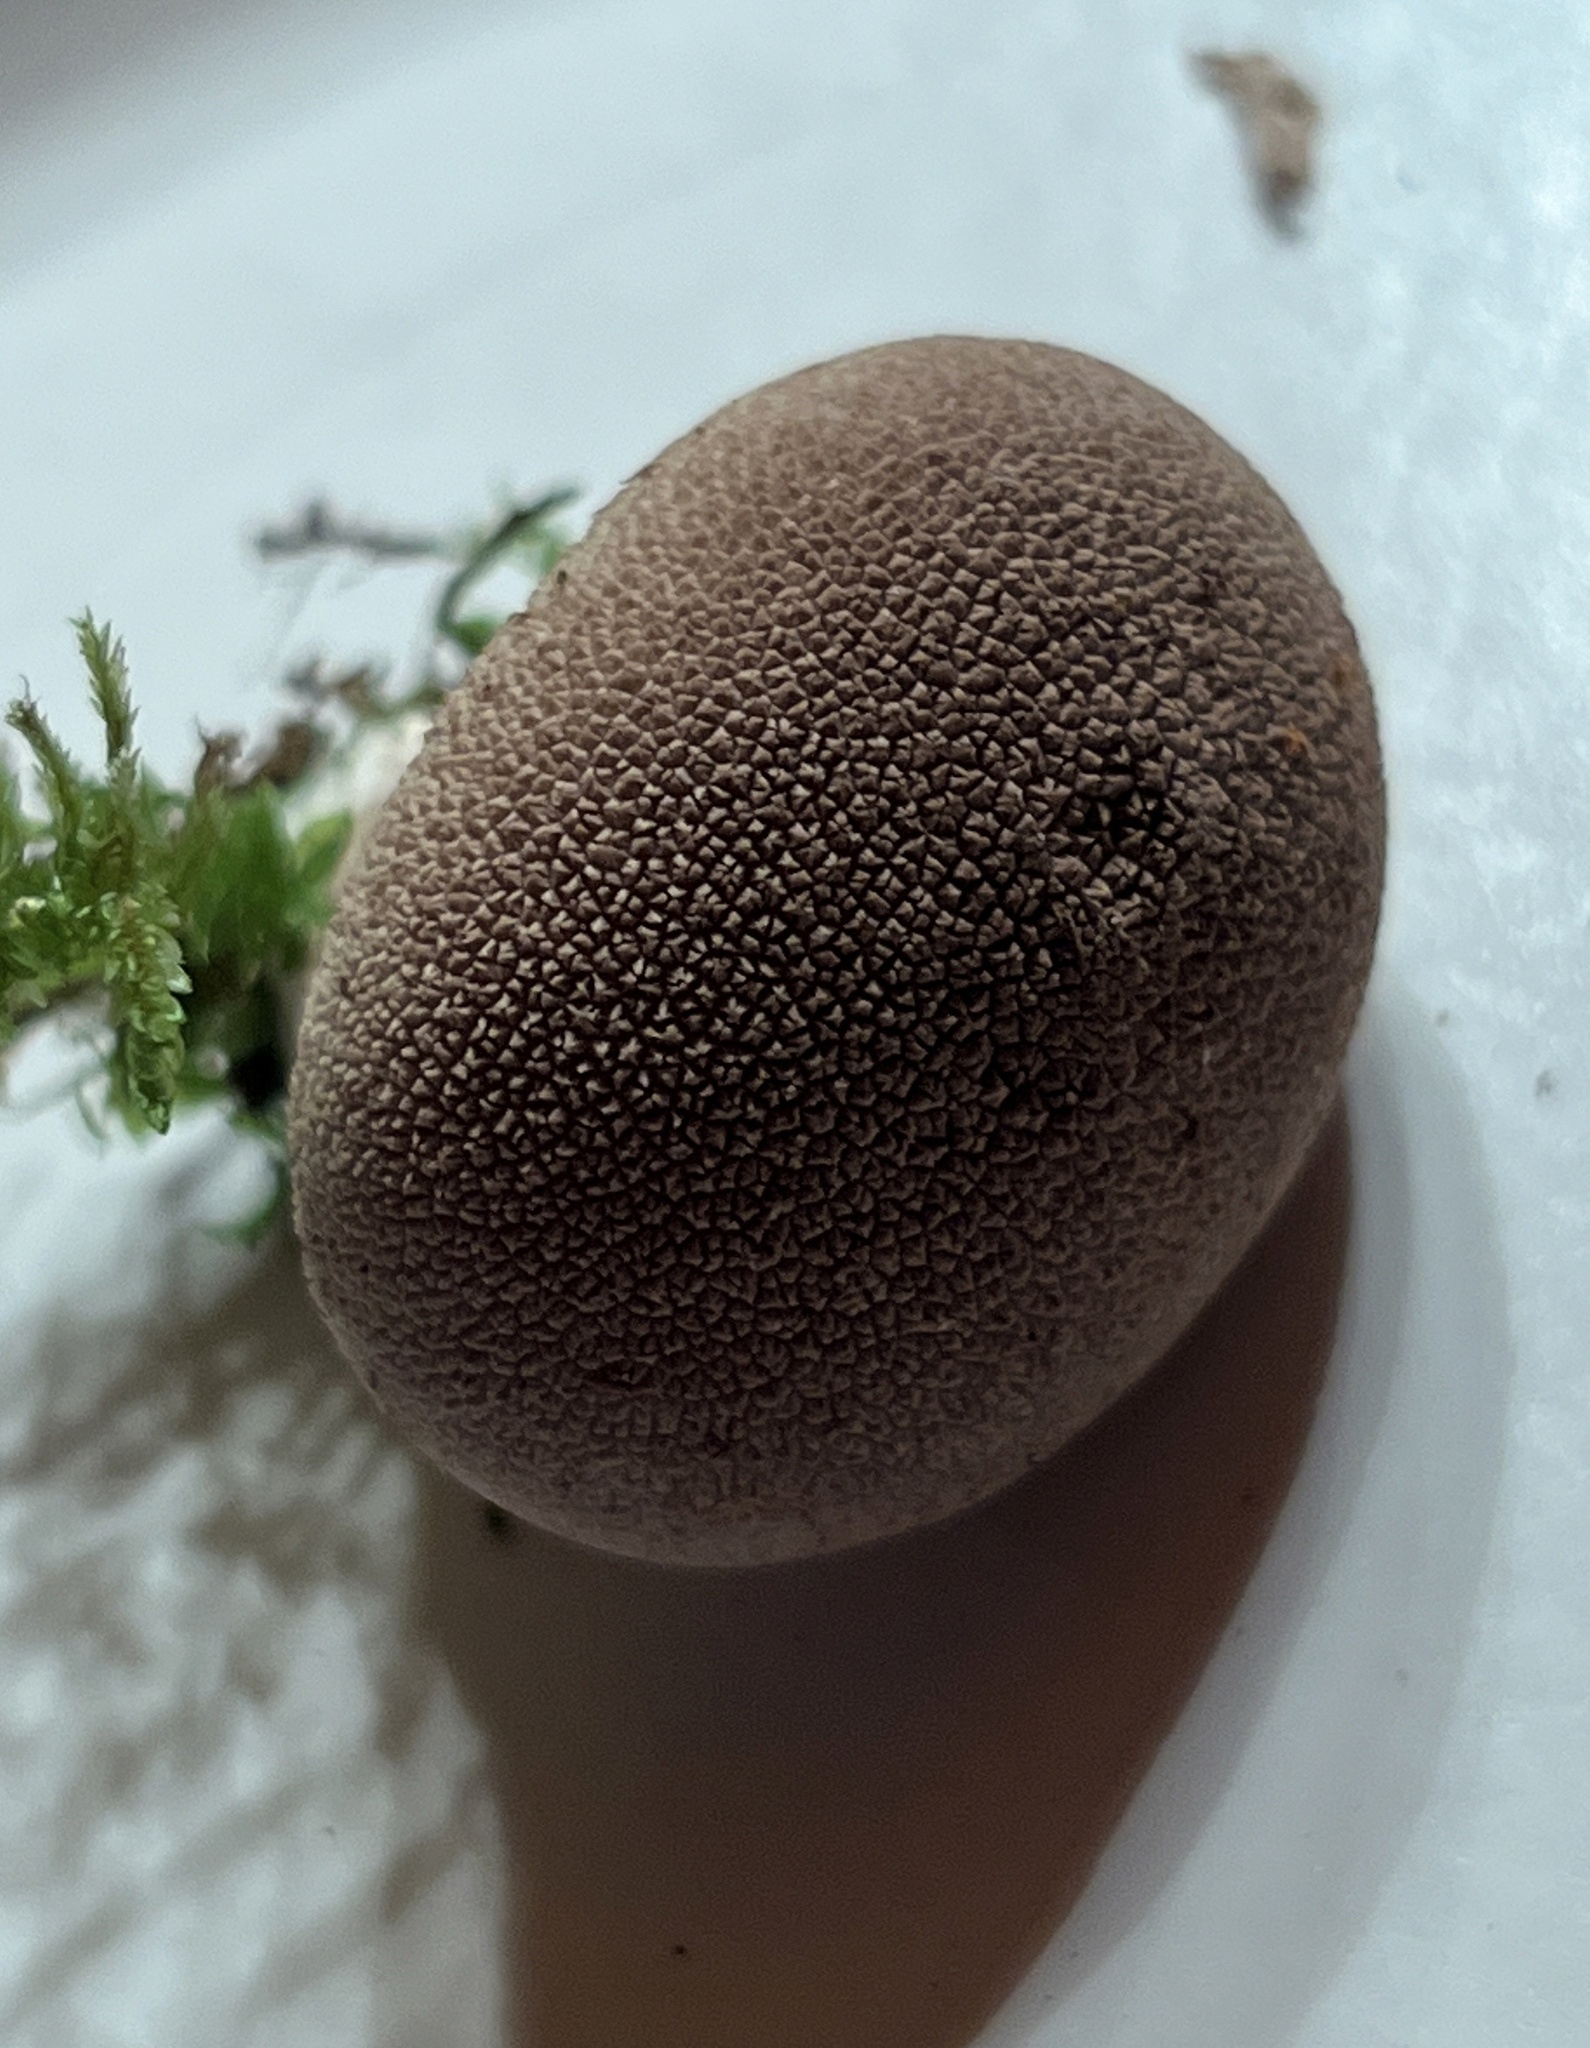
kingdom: Fungi
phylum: Basidiomycota
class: Agaricomycetes
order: Agaricales
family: Lycoperdaceae
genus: Lycoperdon
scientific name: Lycoperdon echinatum
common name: Hedgehog puffball
